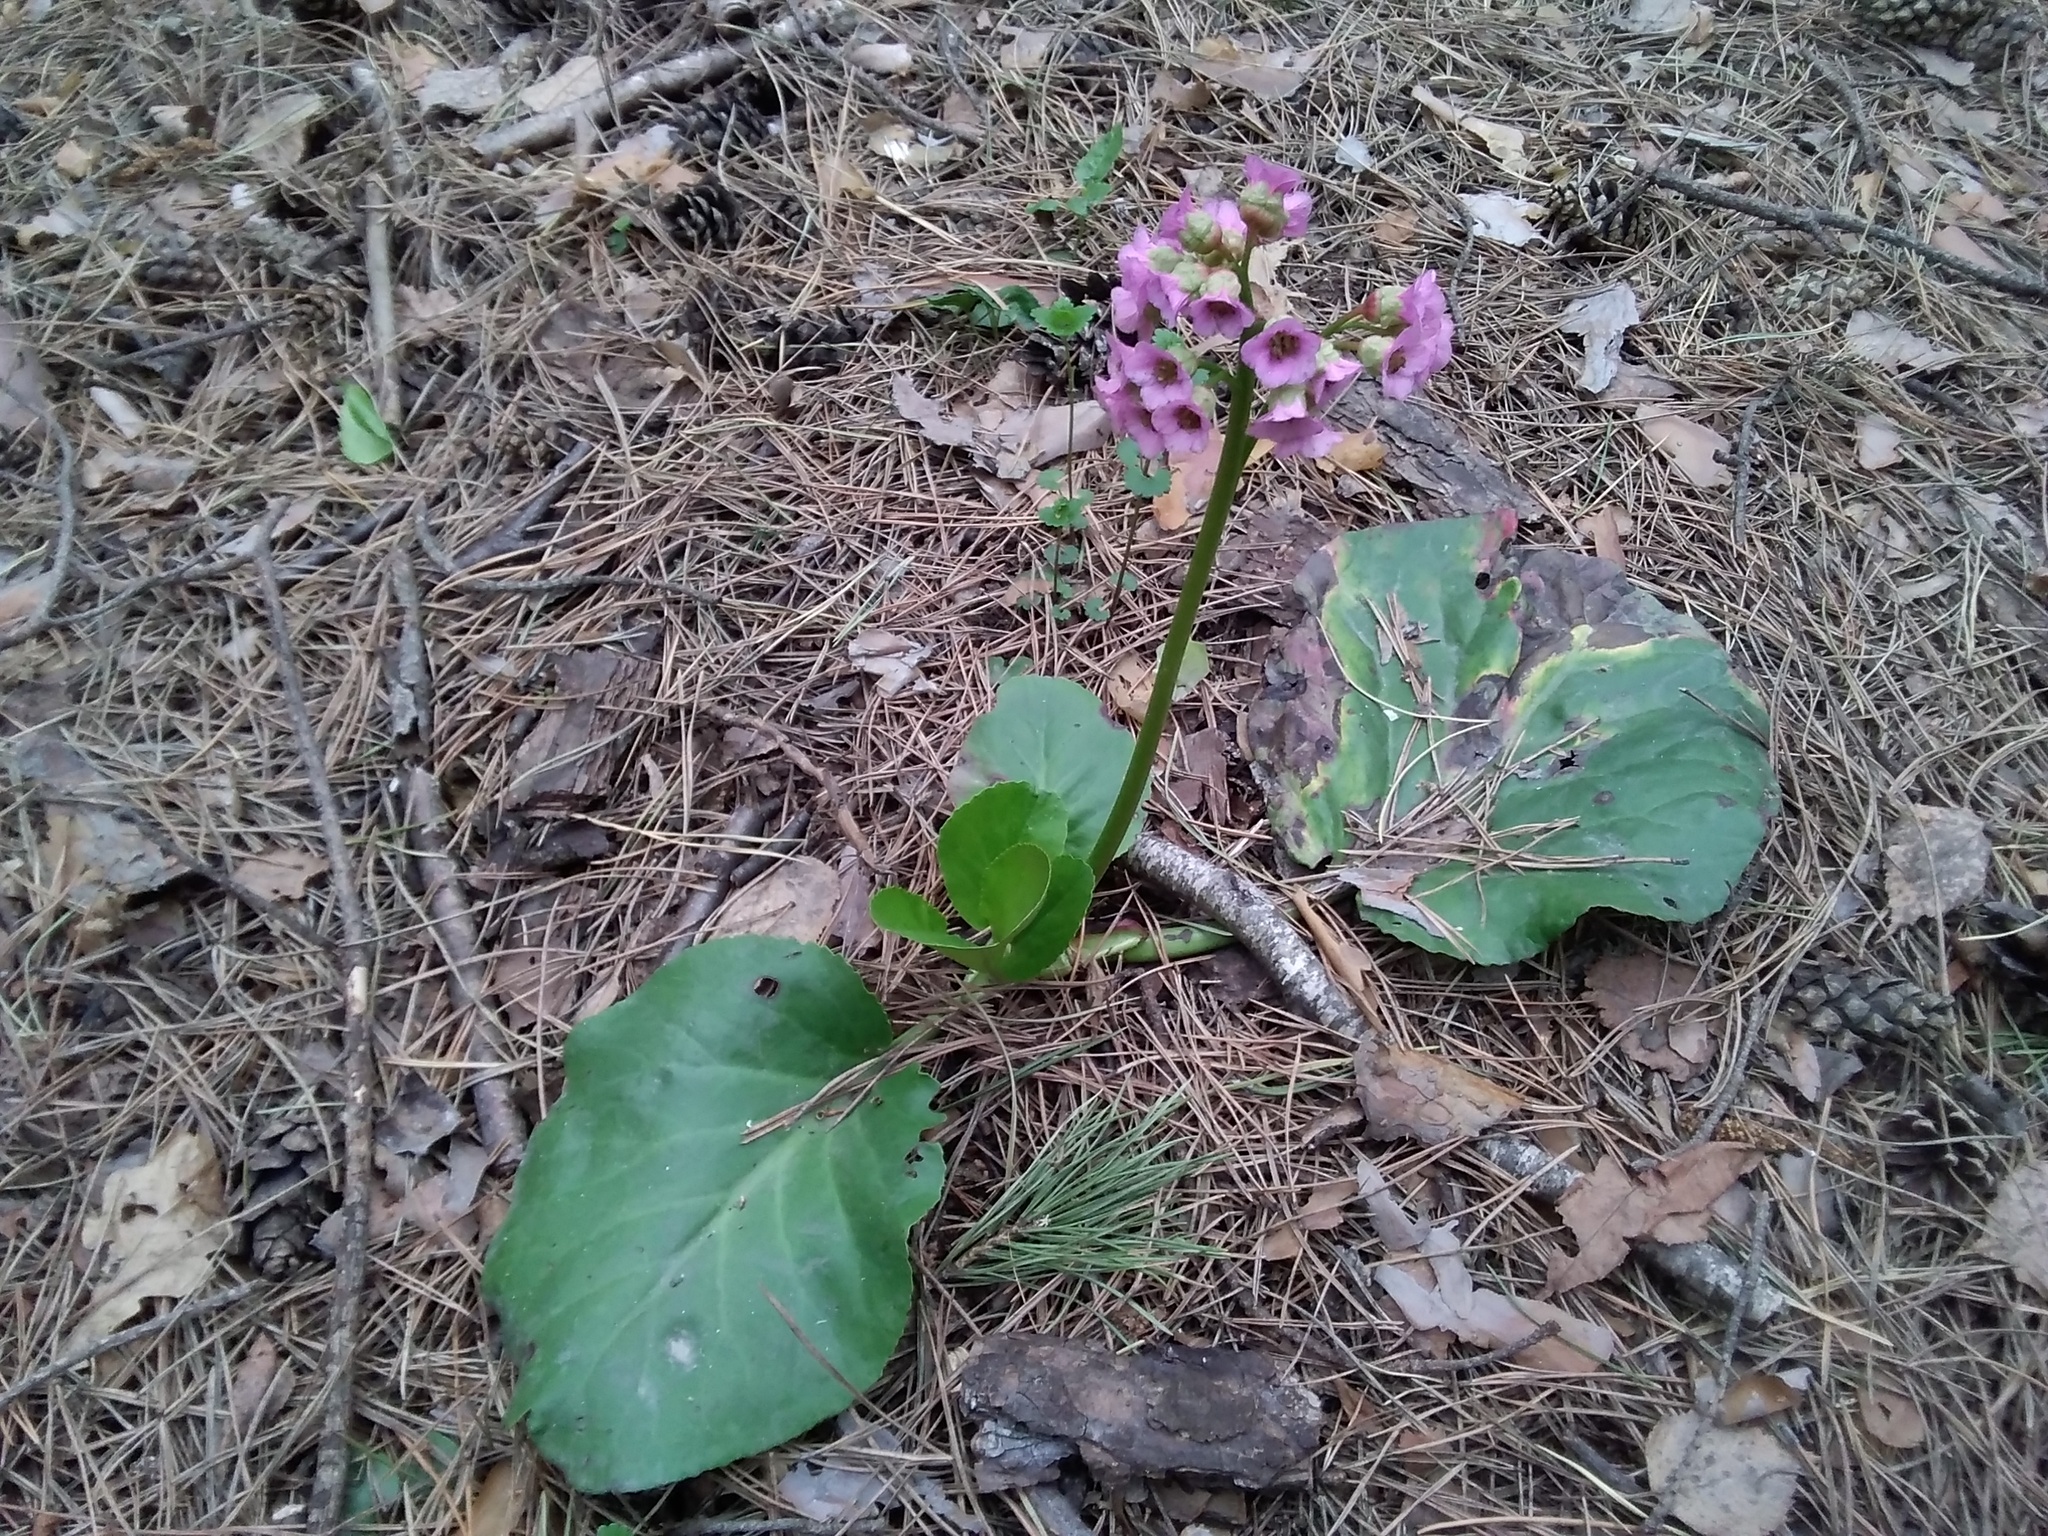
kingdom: Plantae
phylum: Tracheophyta
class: Magnoliopsida
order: Saxifragales
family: Saxifragaceae
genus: Bergenia
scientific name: Bergenia crassifolia
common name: Elephant-ears
